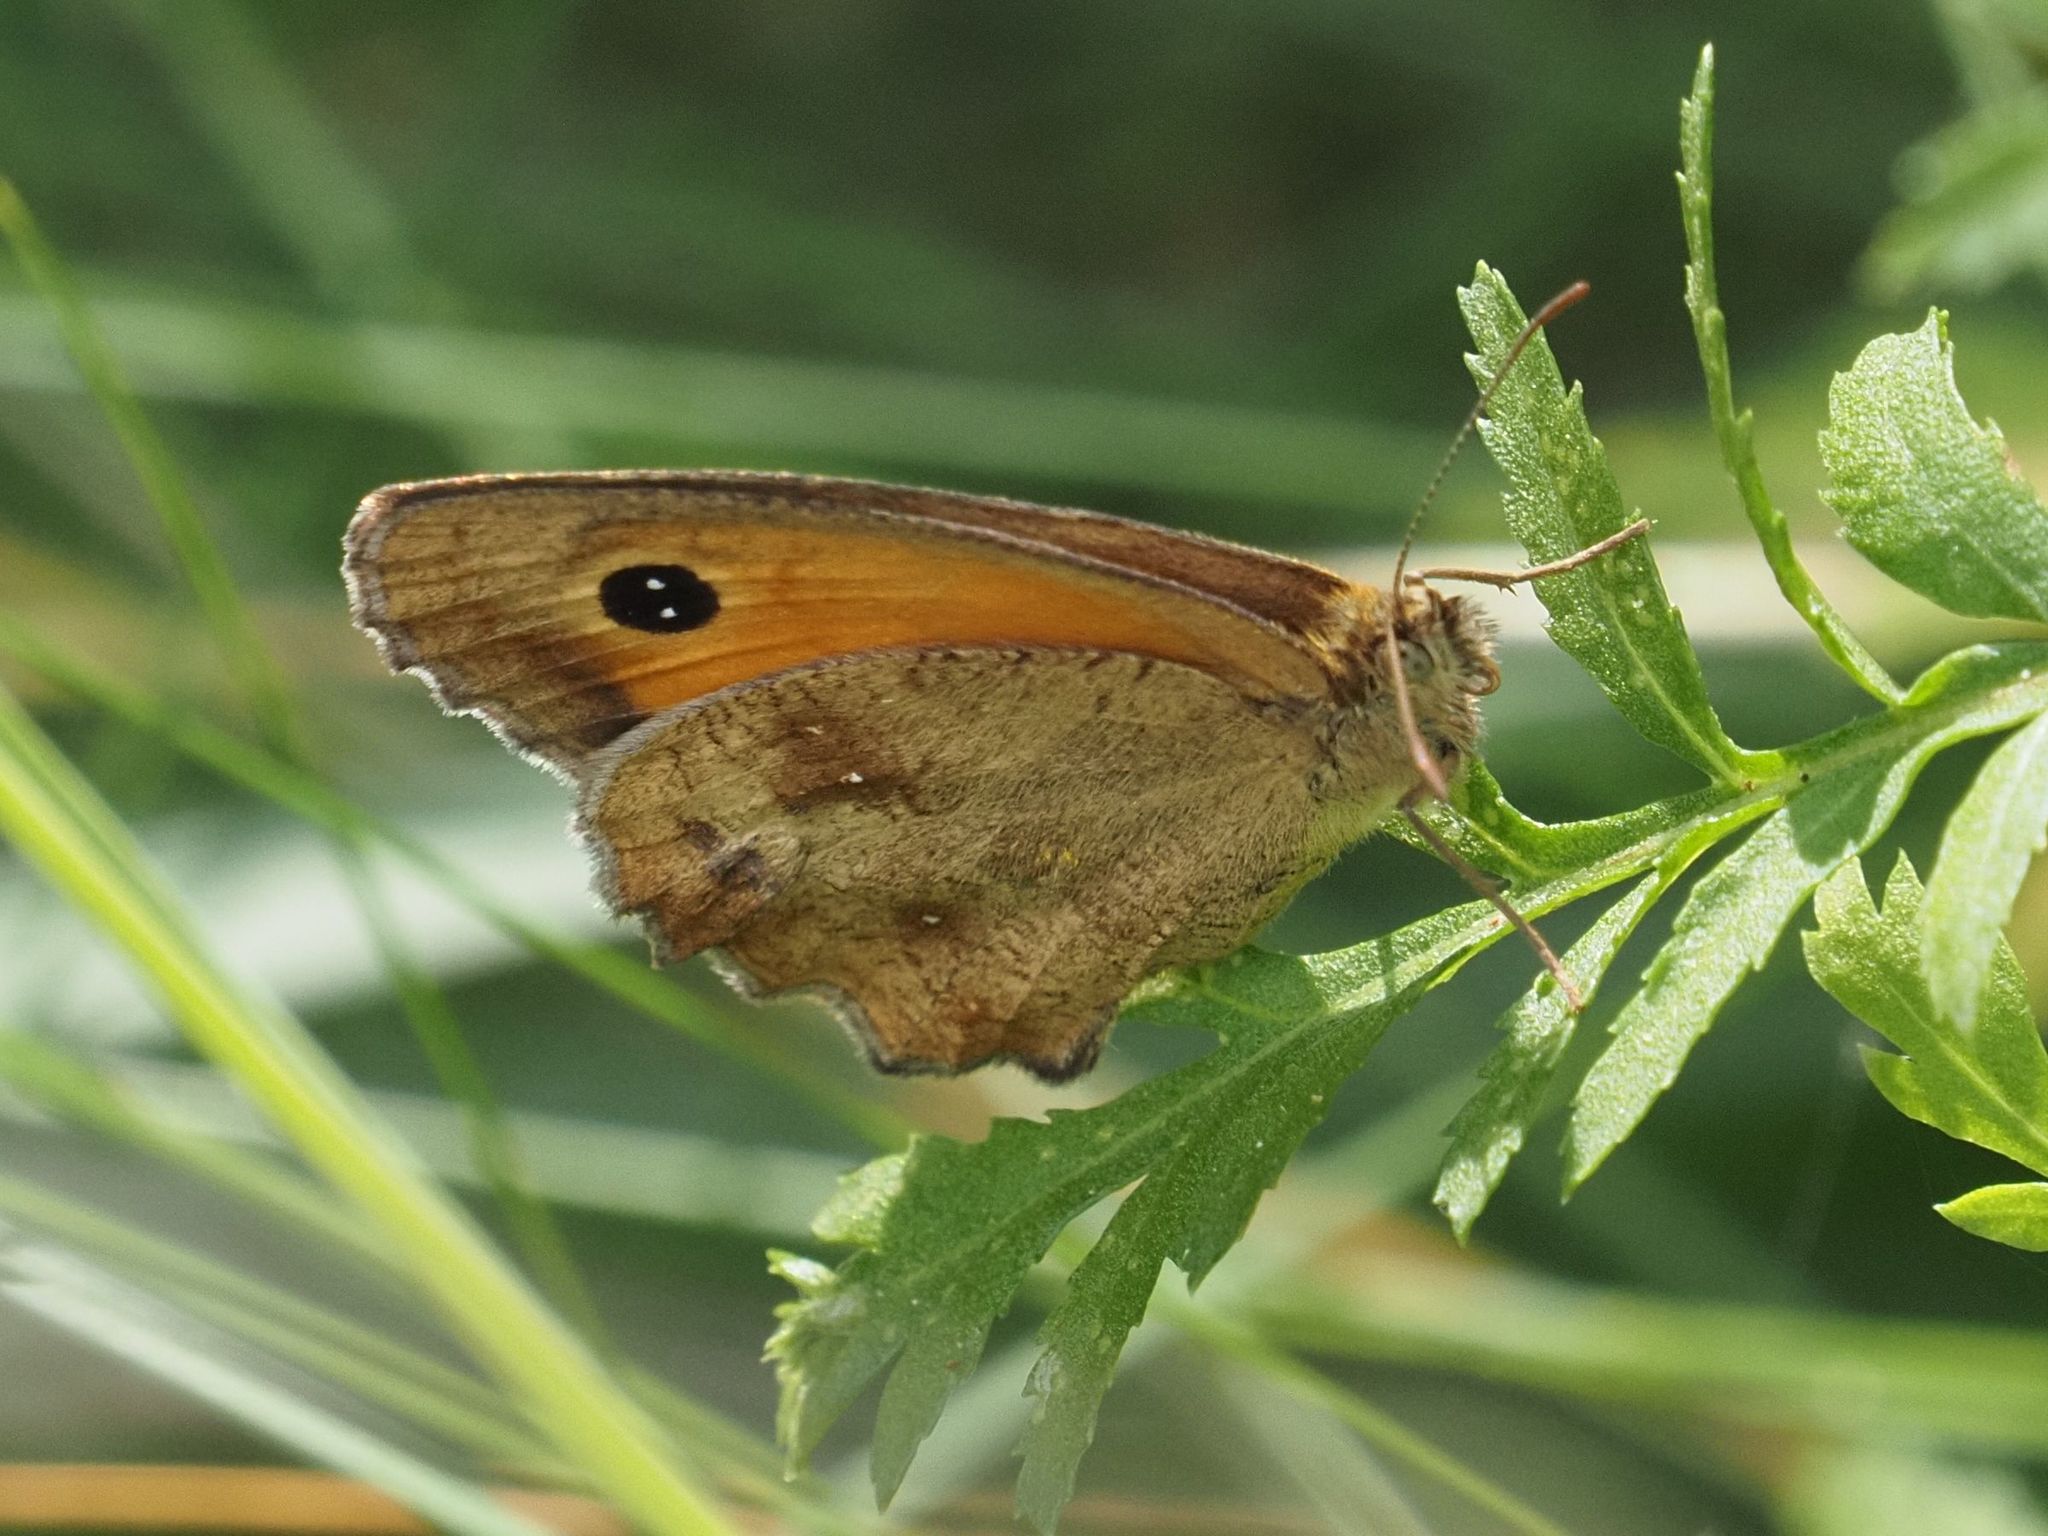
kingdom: Animalia
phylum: Arthropoda
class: Insecta
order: Lepidoptera
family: Nymphalidae
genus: Pyronia
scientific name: Pyronia tithonus
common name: Gatekeeper
